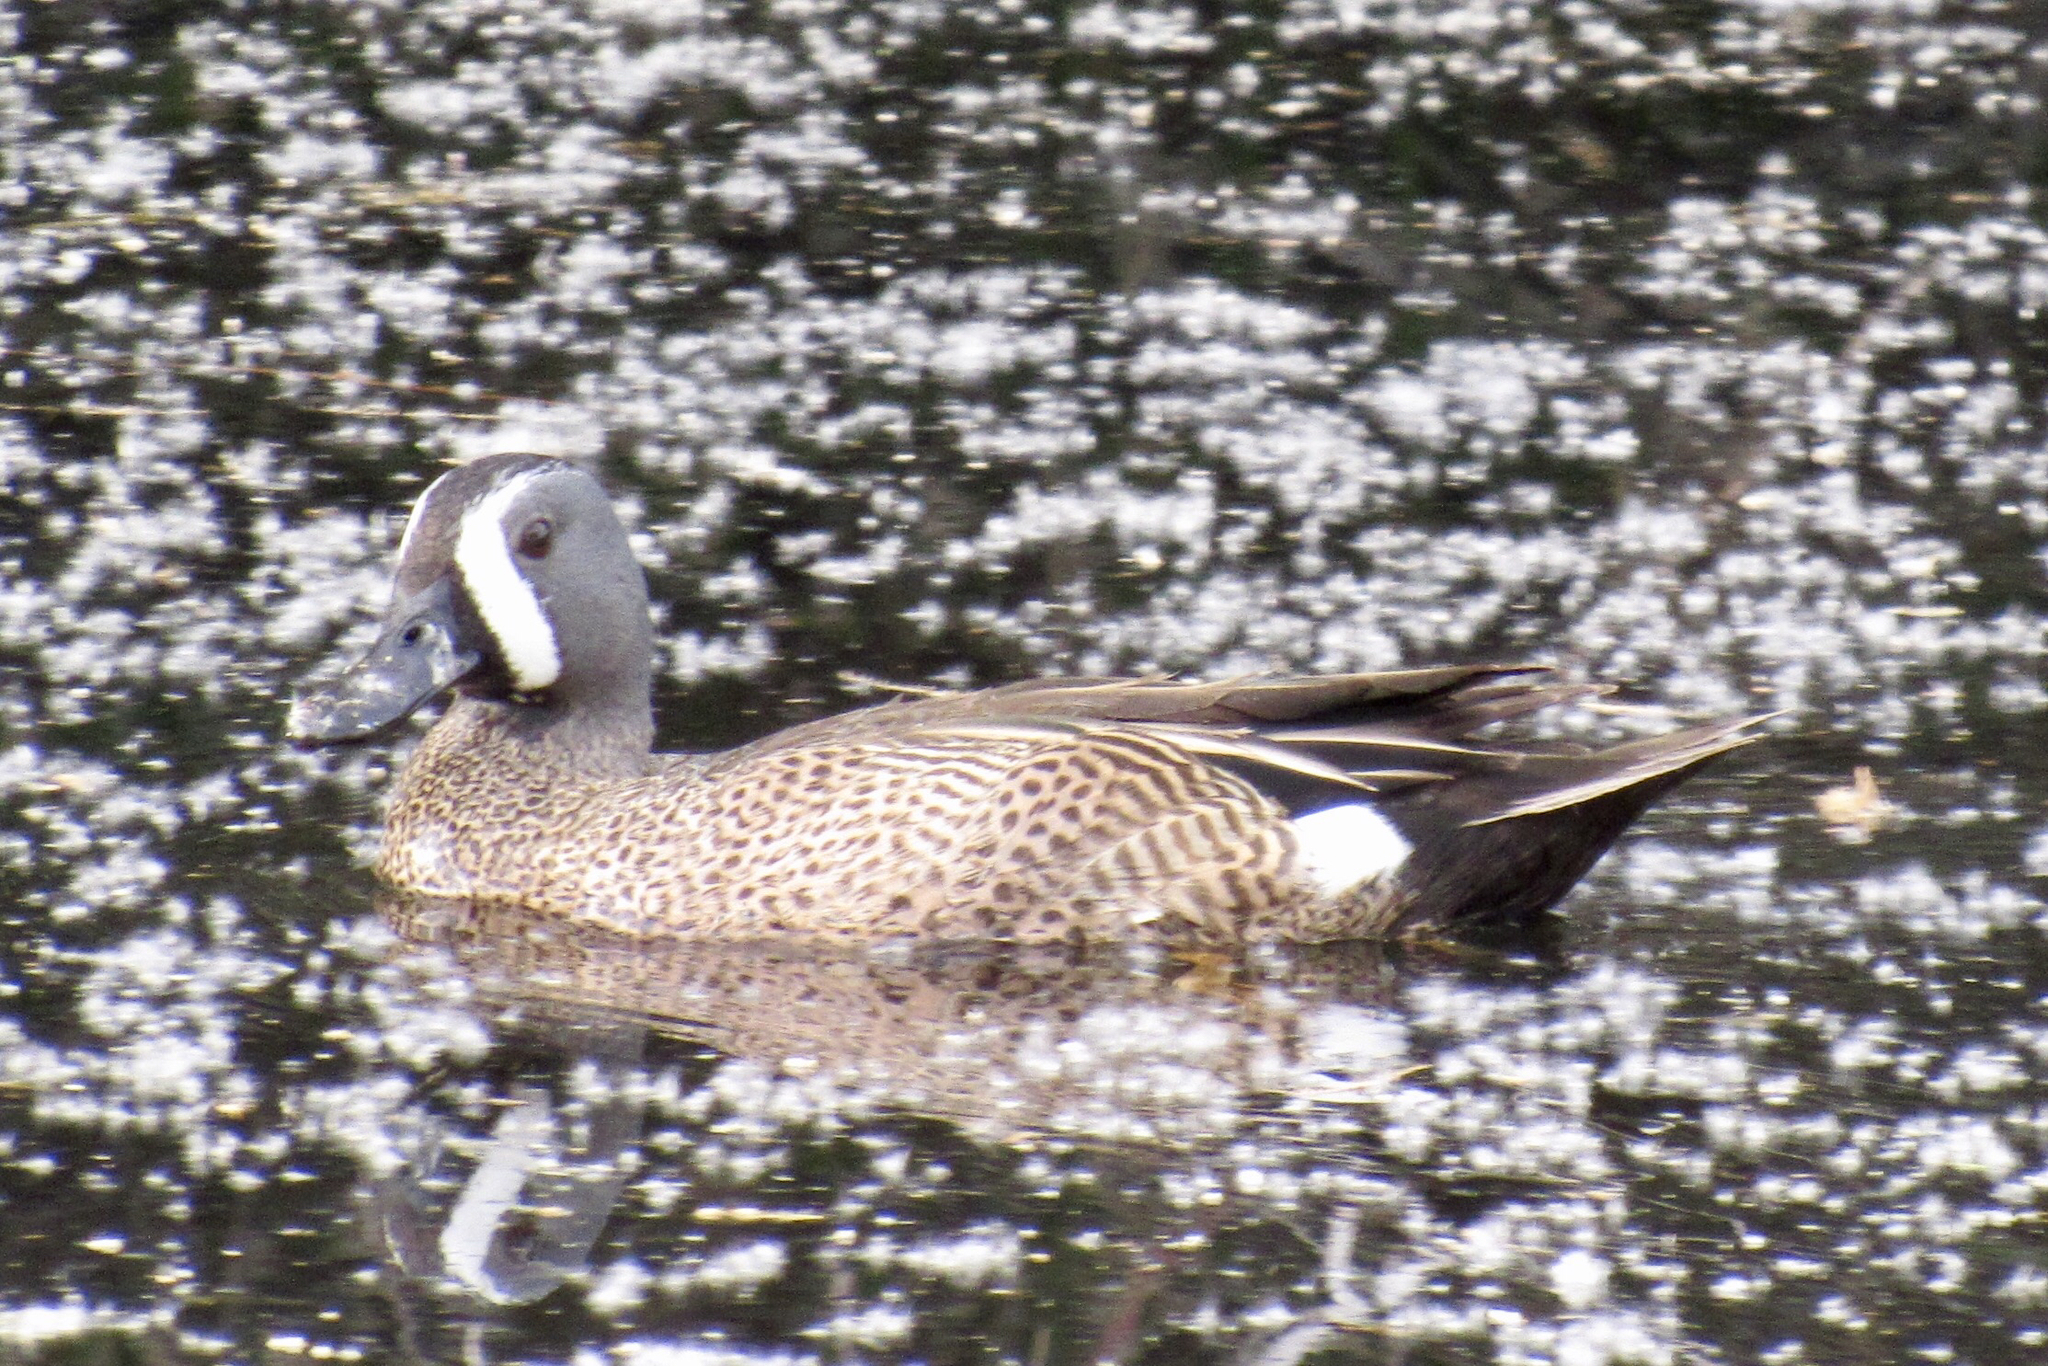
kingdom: Animalia
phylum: Chordata
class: Aves
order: Anseriformes
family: Anatidae
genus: Spatula
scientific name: Spatula discors
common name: Blue-winged teal
